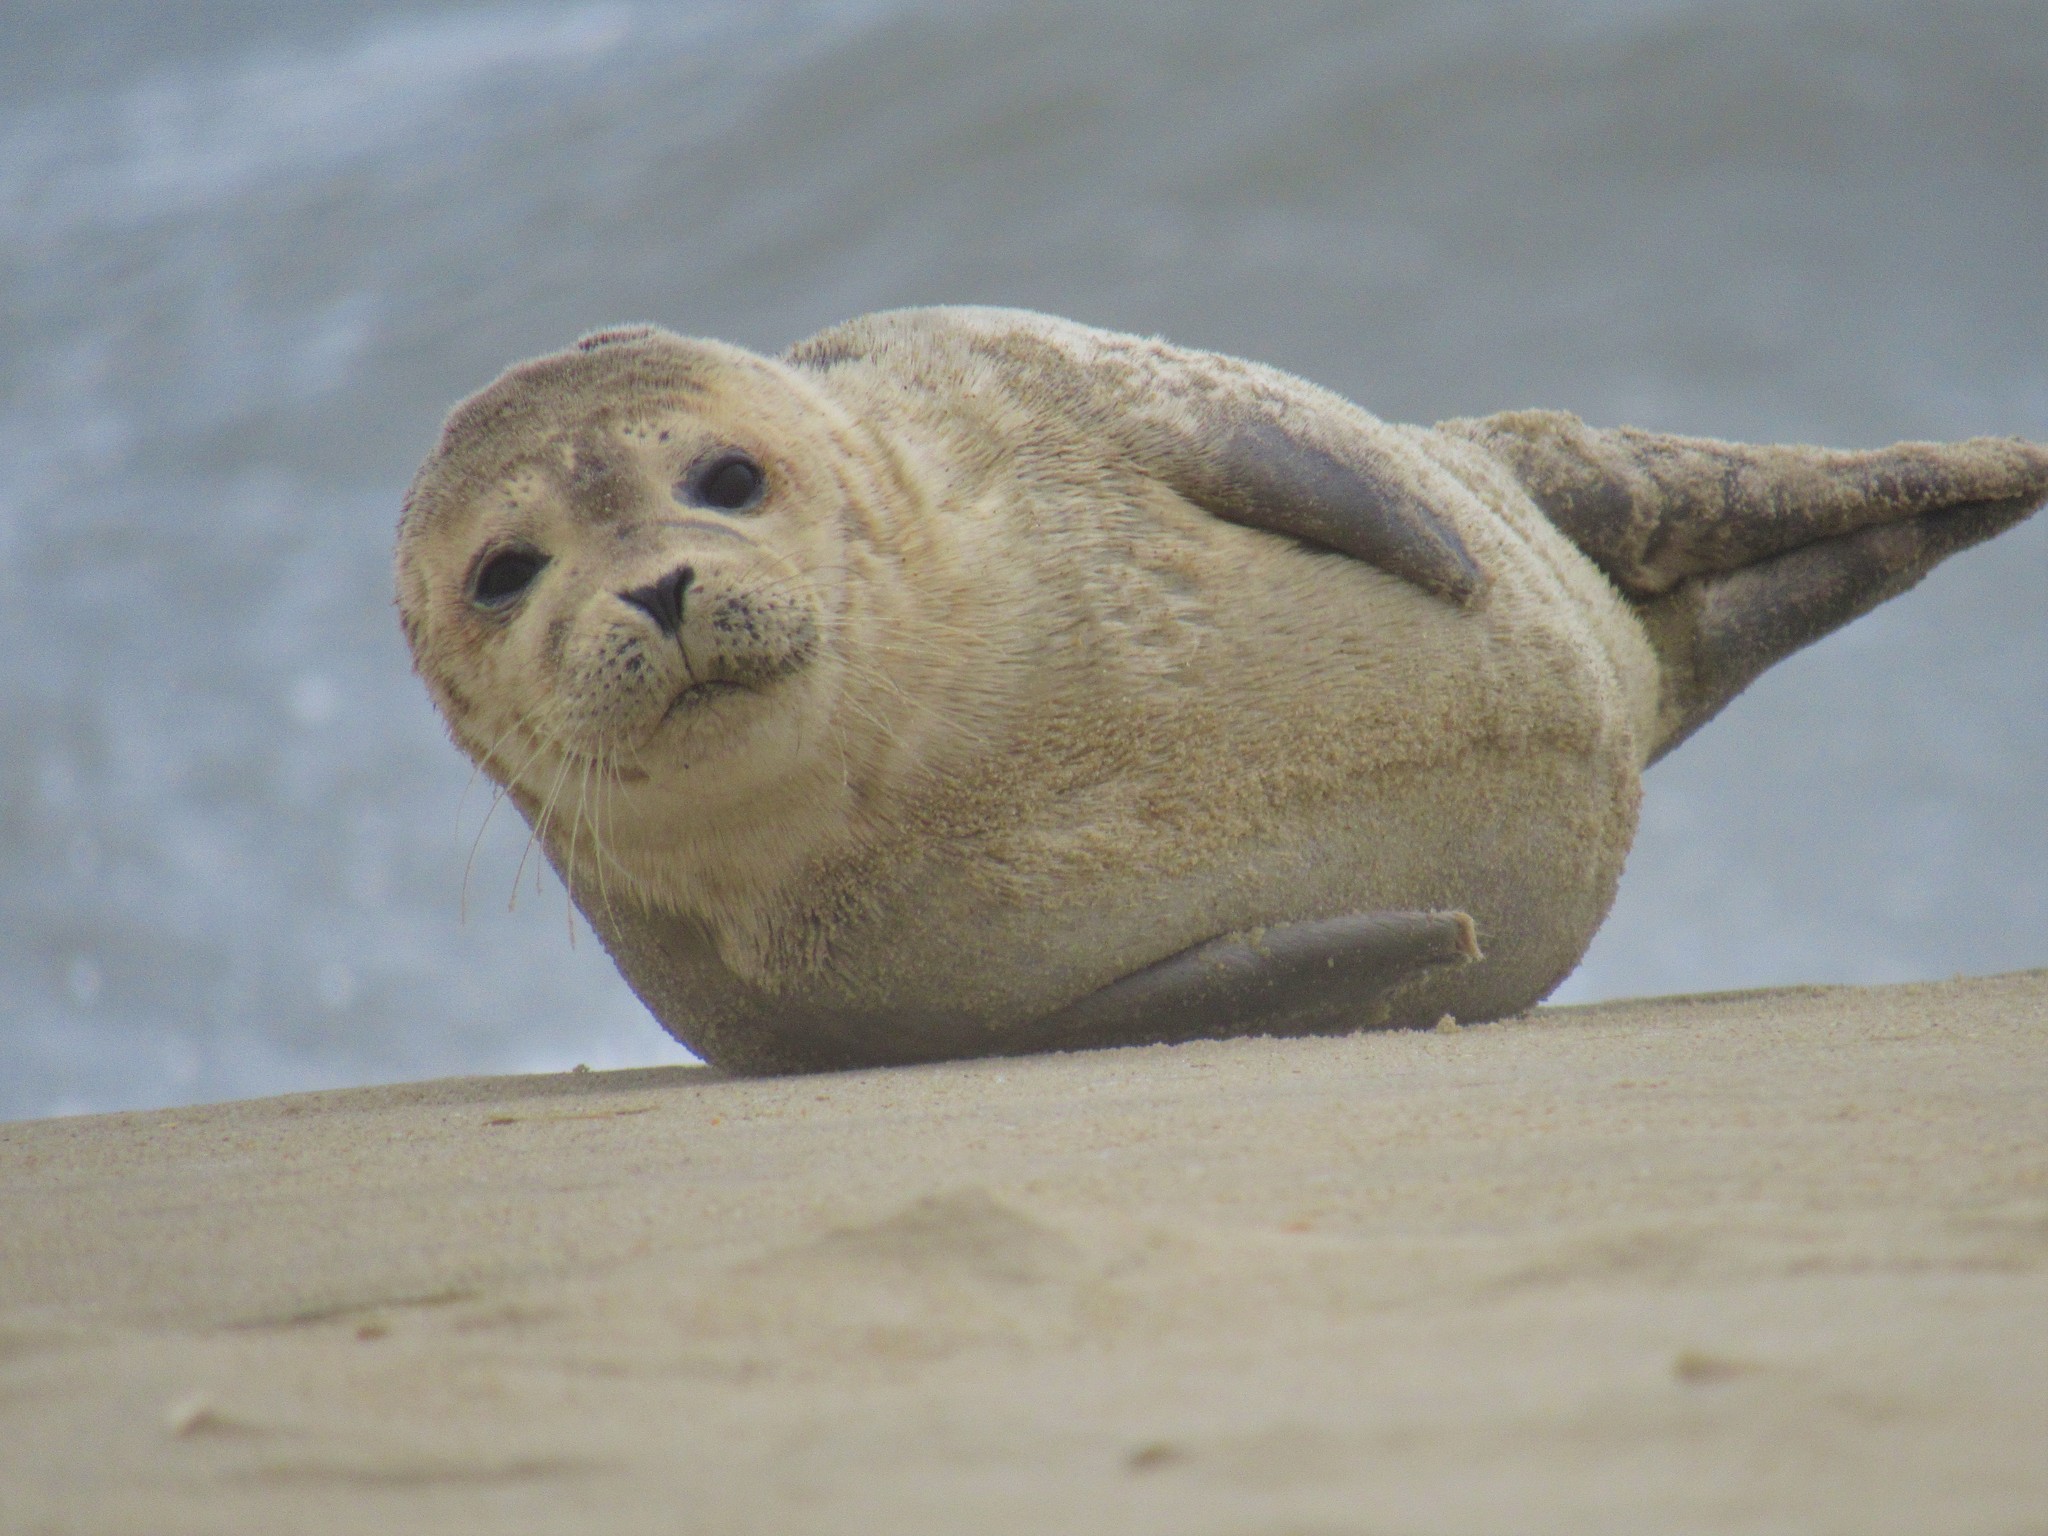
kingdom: Animalia
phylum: Chordata
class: Mammalia
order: Carnivora
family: Phocidae
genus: Phoca
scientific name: Phoca vitulina
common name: Harbor seal
